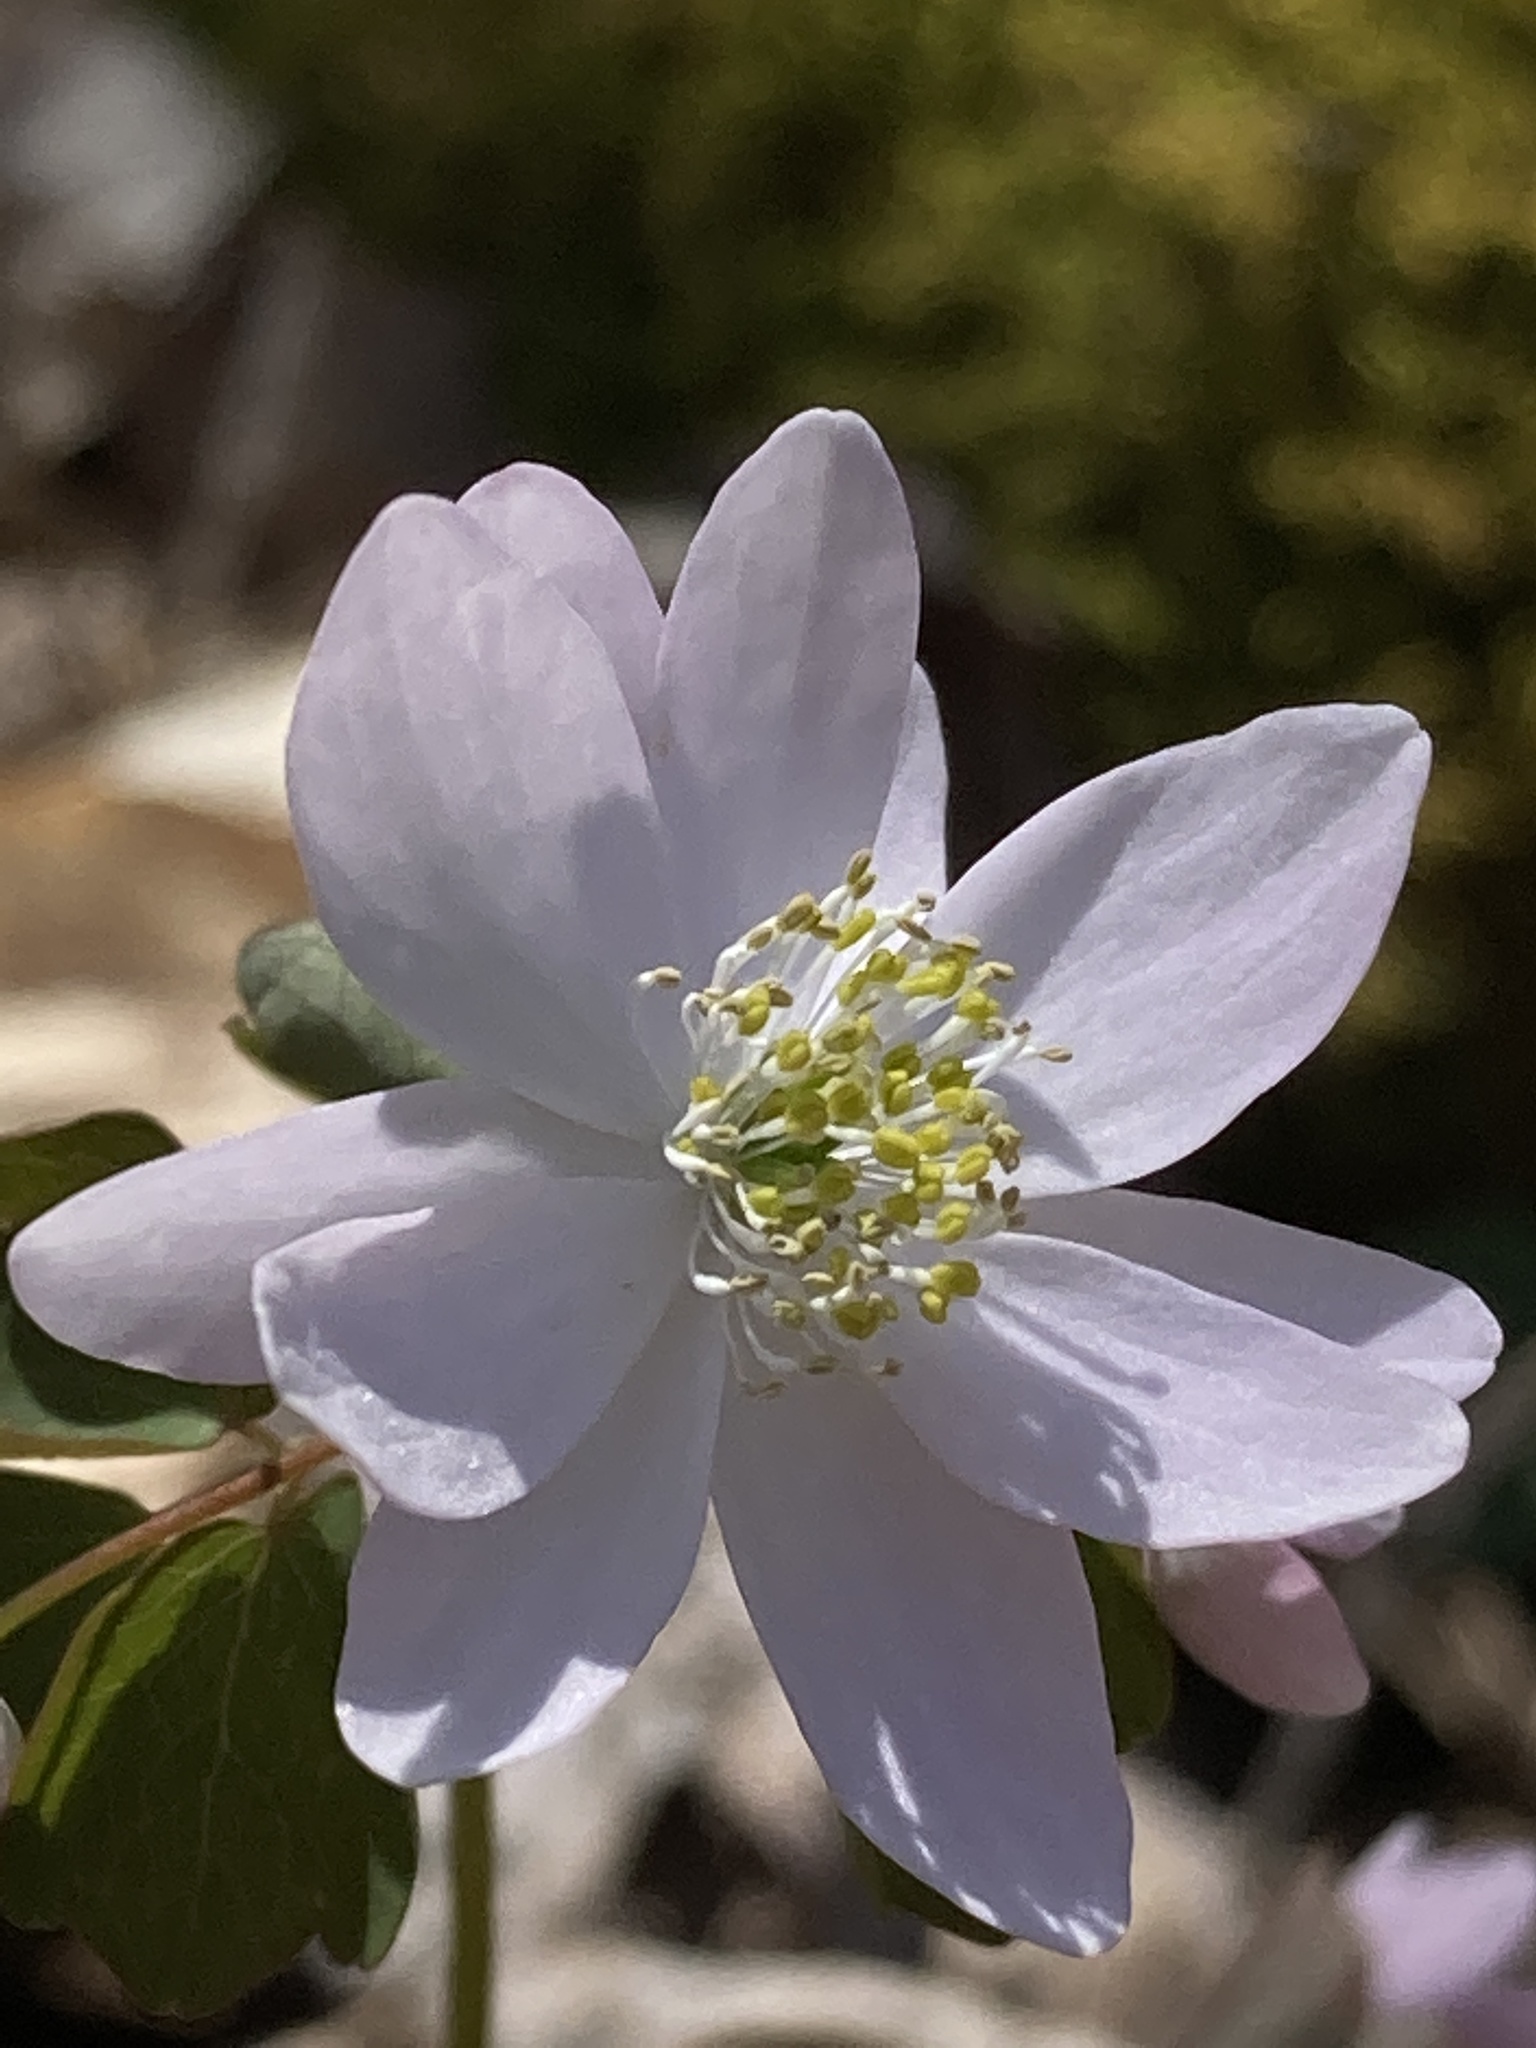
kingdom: Plantae
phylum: Tracheophyta
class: Magnoliopsida
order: Ranunculales
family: Ranunculaceae
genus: Thalictrum
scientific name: Thalictrum thalictroides
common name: Rue-anemone
